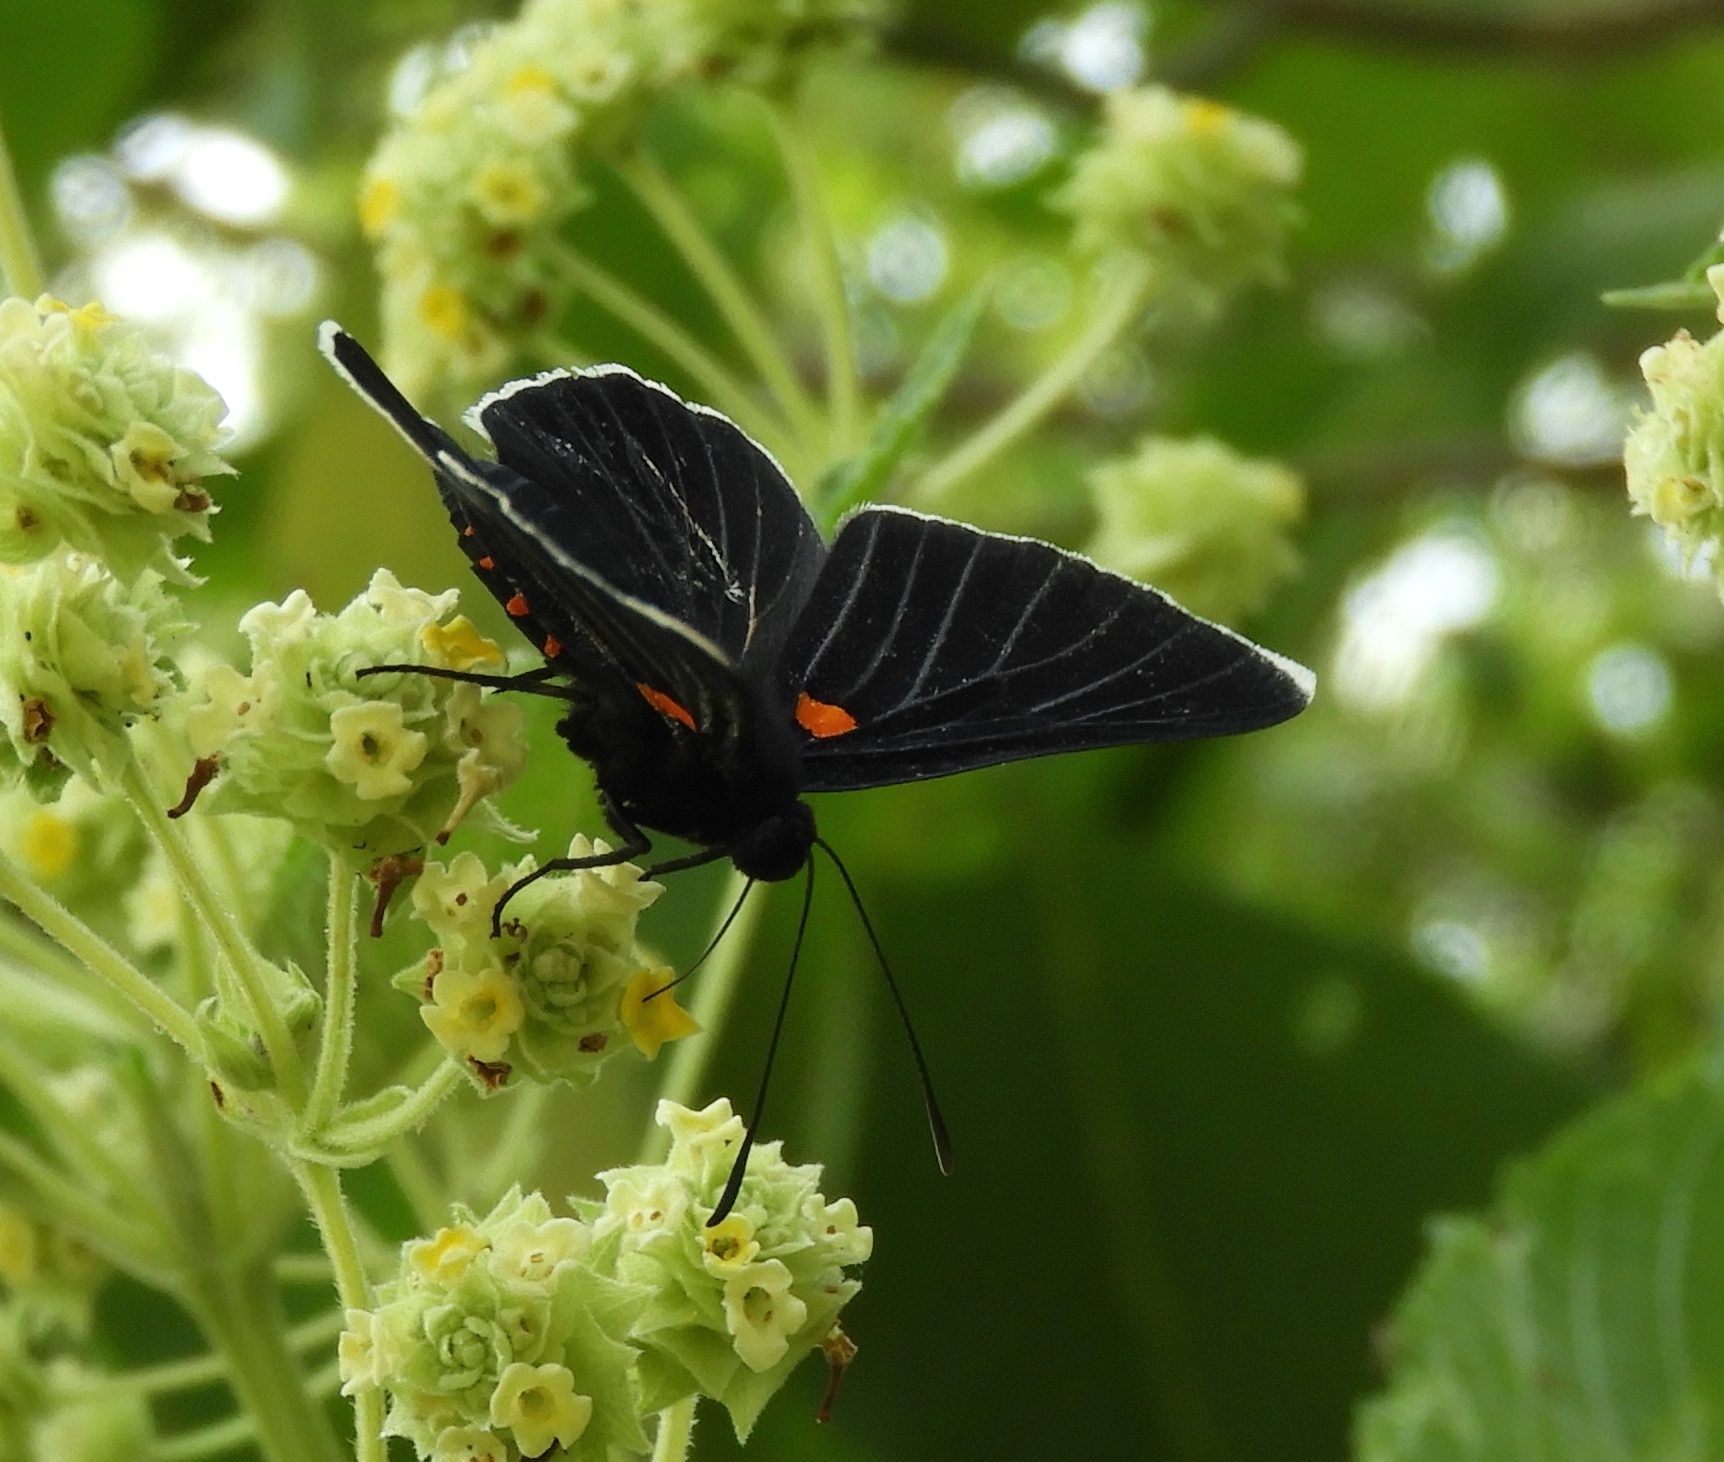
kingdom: Animalia
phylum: Arthropoda
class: Insecta
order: Lepidoptera
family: Lycaenidae
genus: Melanis
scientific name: Melanis
